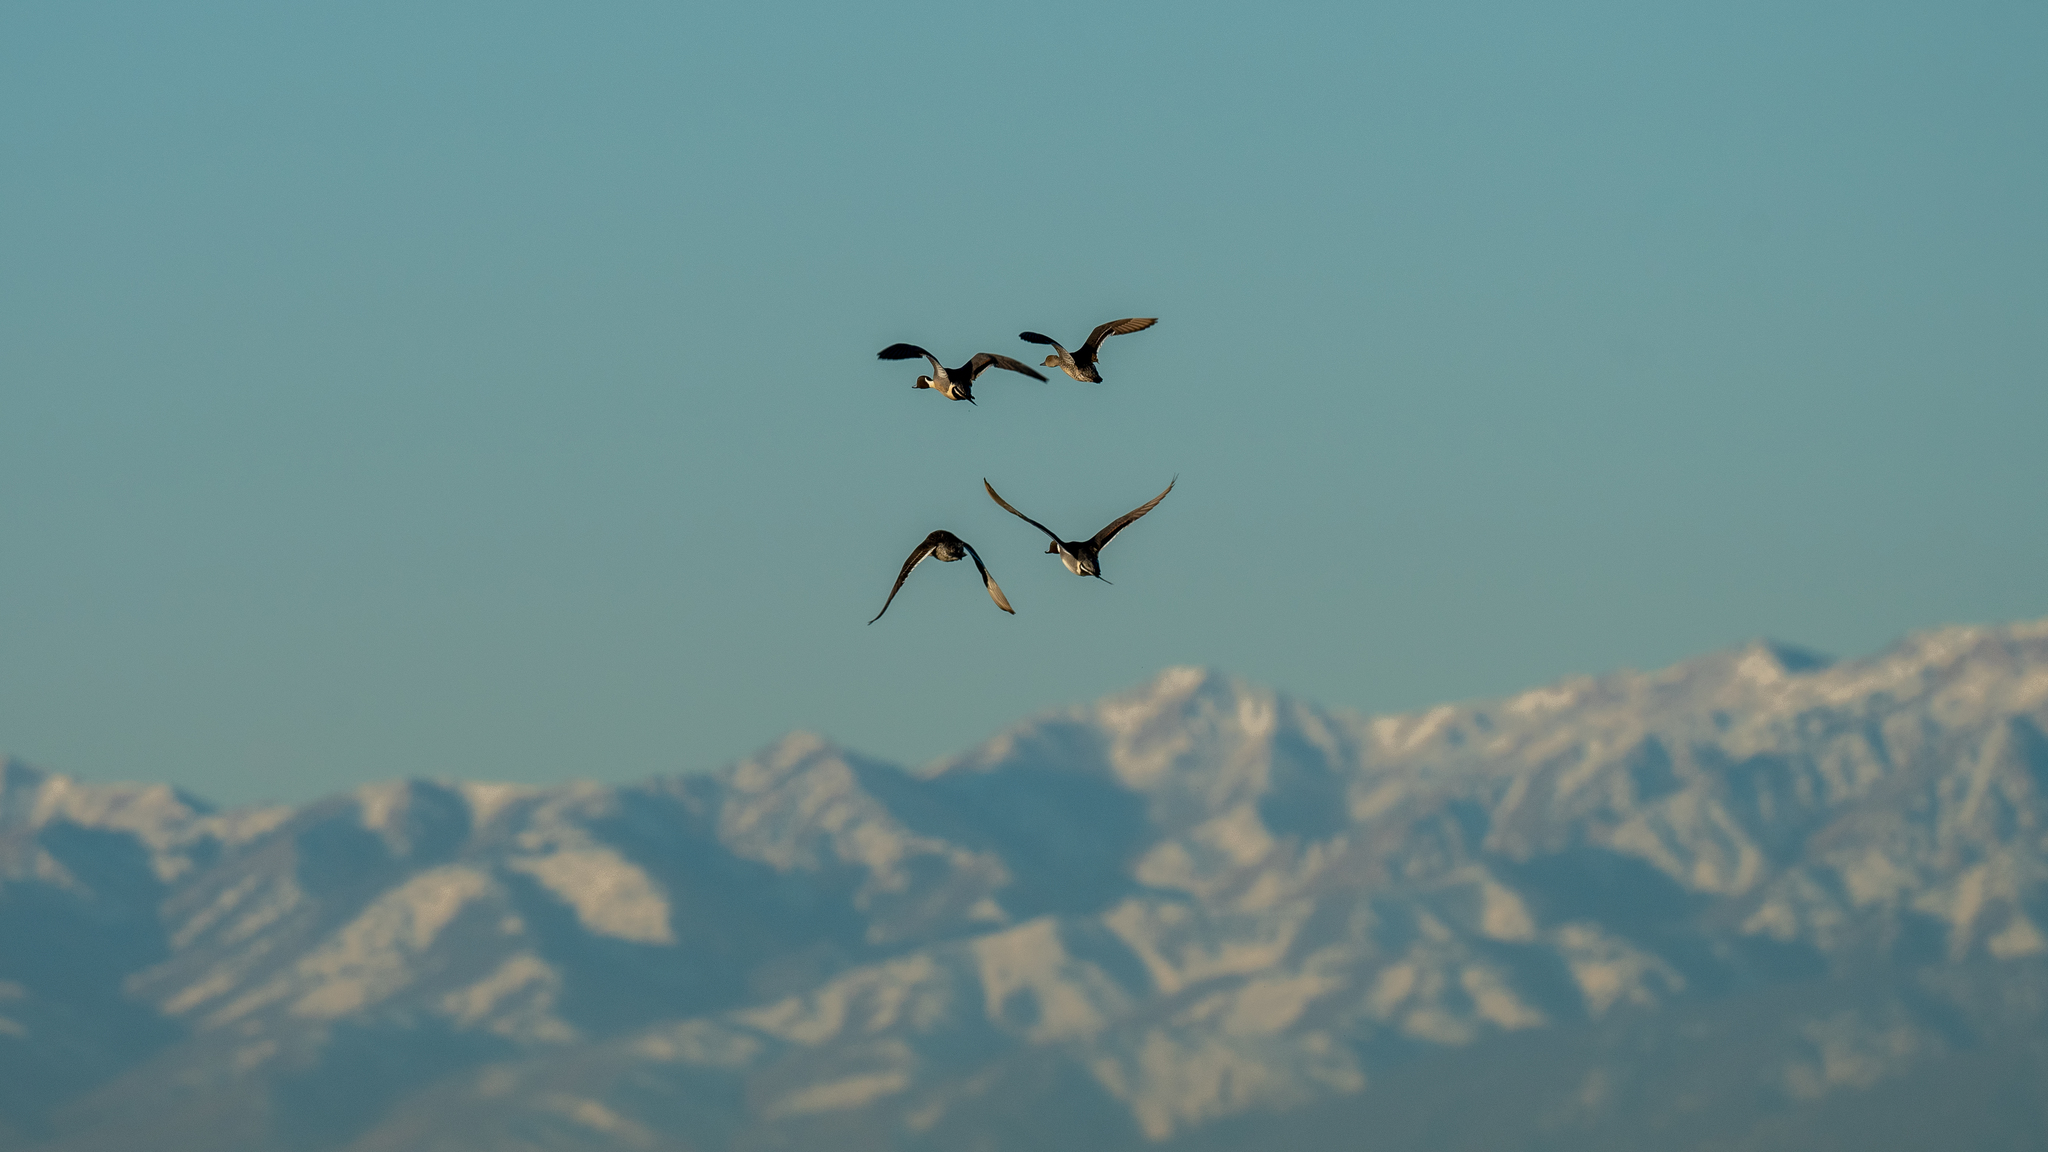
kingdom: Animalia
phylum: Chordata
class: Aves
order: Anseriformes
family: Anatidae
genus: Anas
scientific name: Anas acuta
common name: Northern pintail
